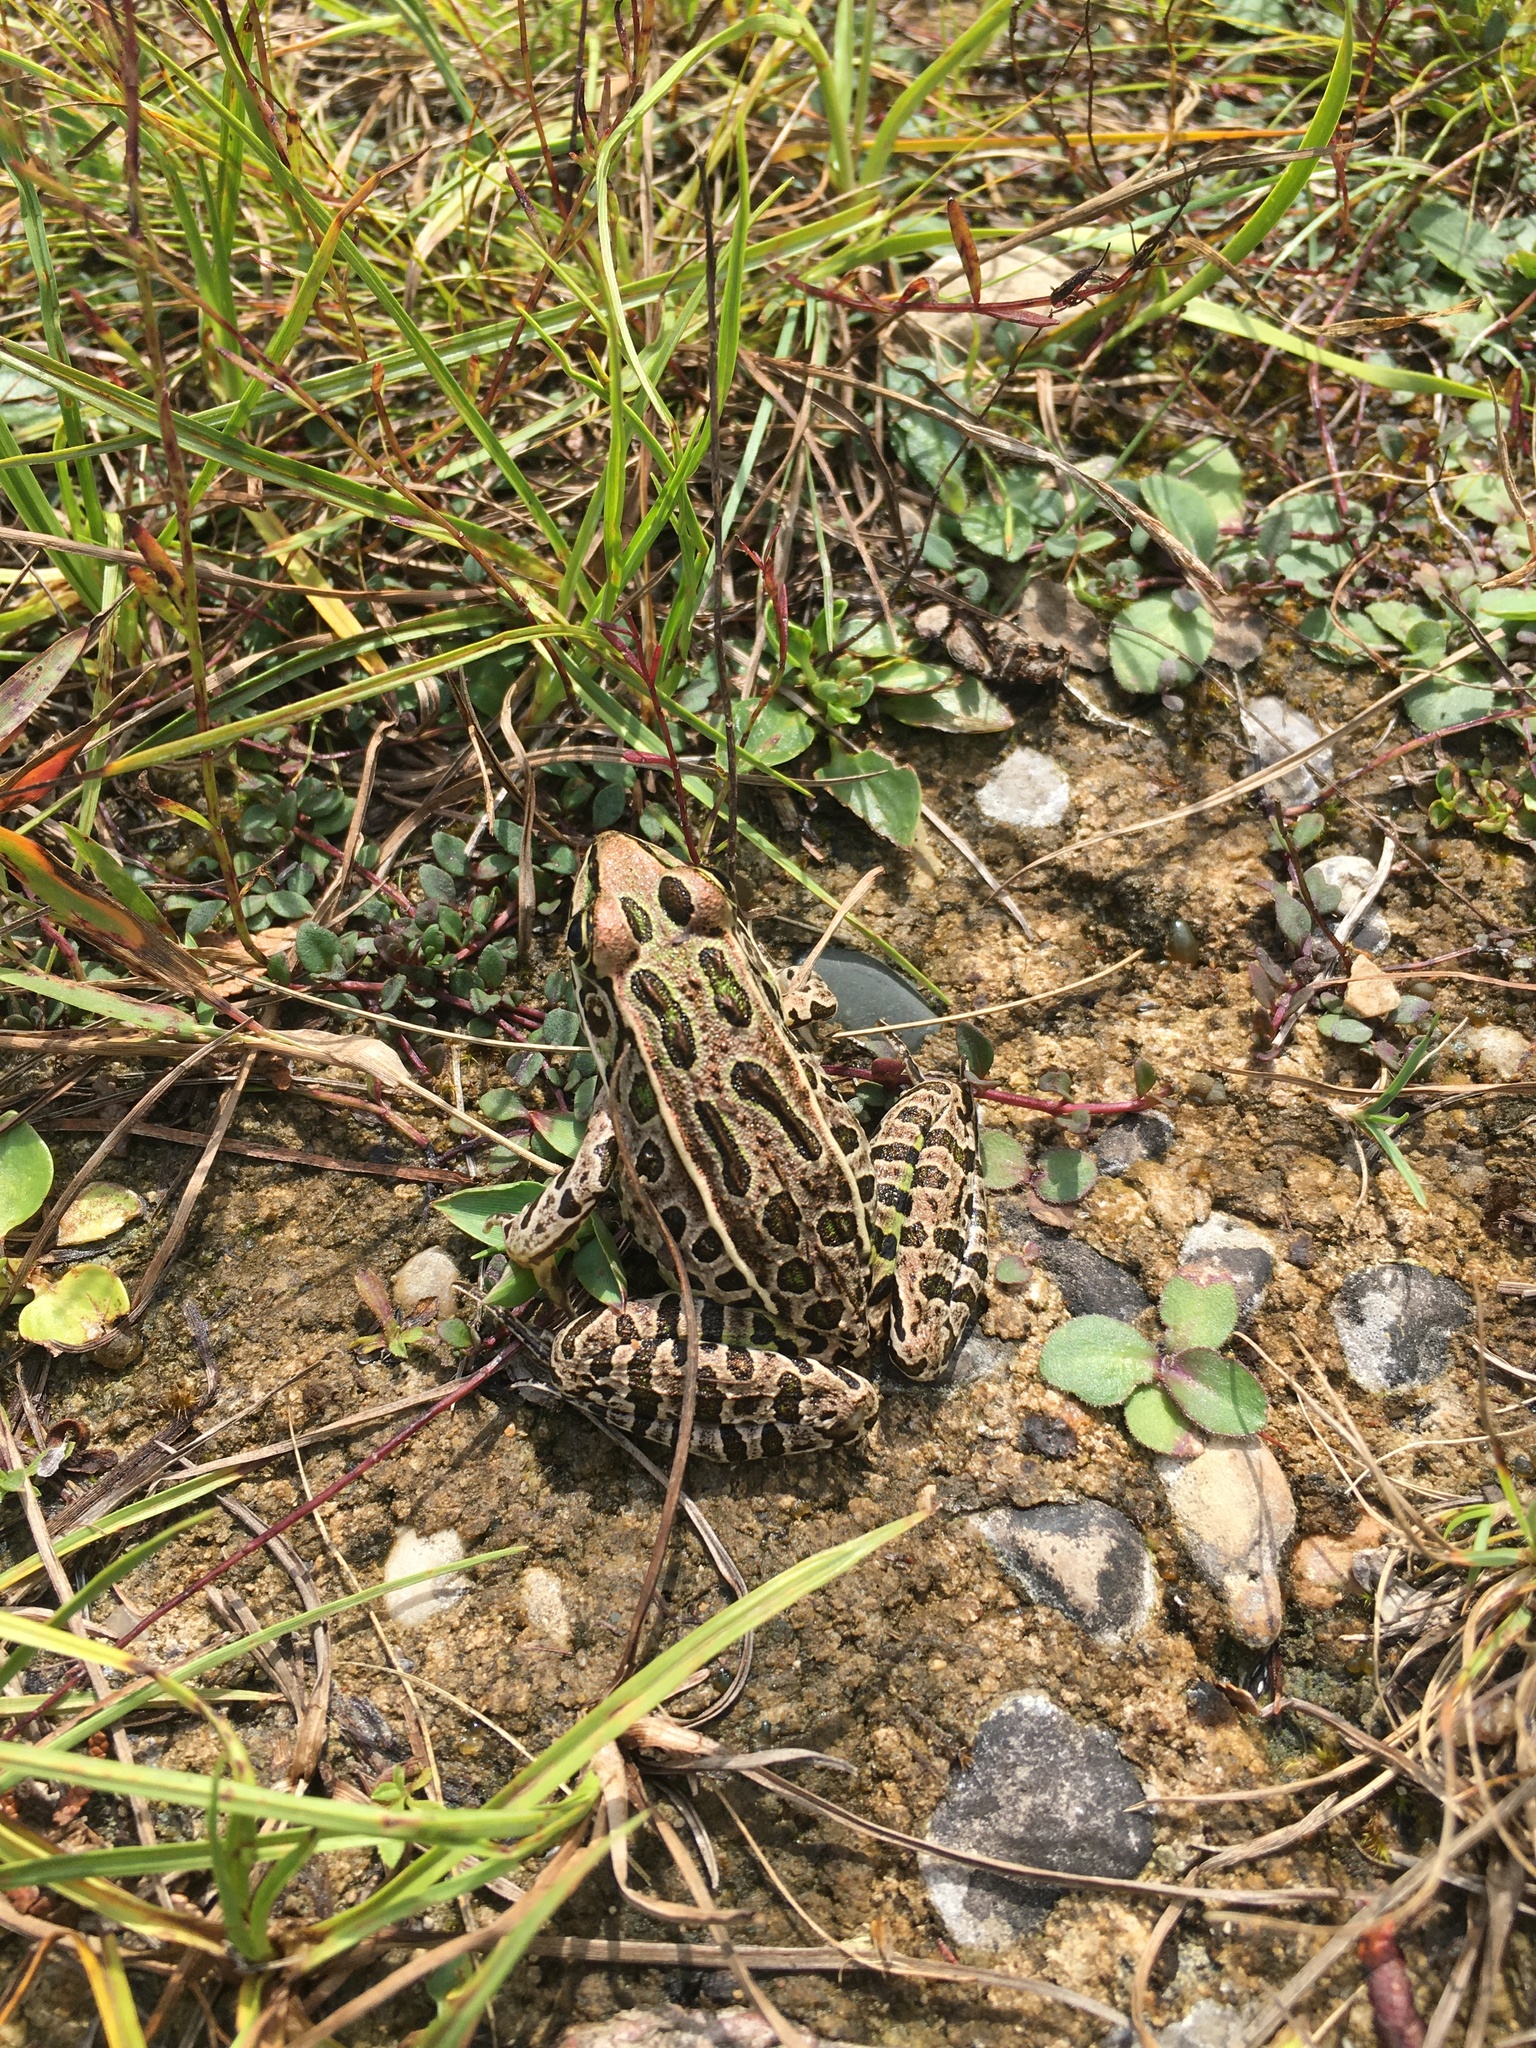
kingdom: Animalia
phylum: Chordata
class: Amphibia
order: Anura
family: Ranidae
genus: Lithobates
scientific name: Lithobates pipiens
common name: Northern leopard frog
